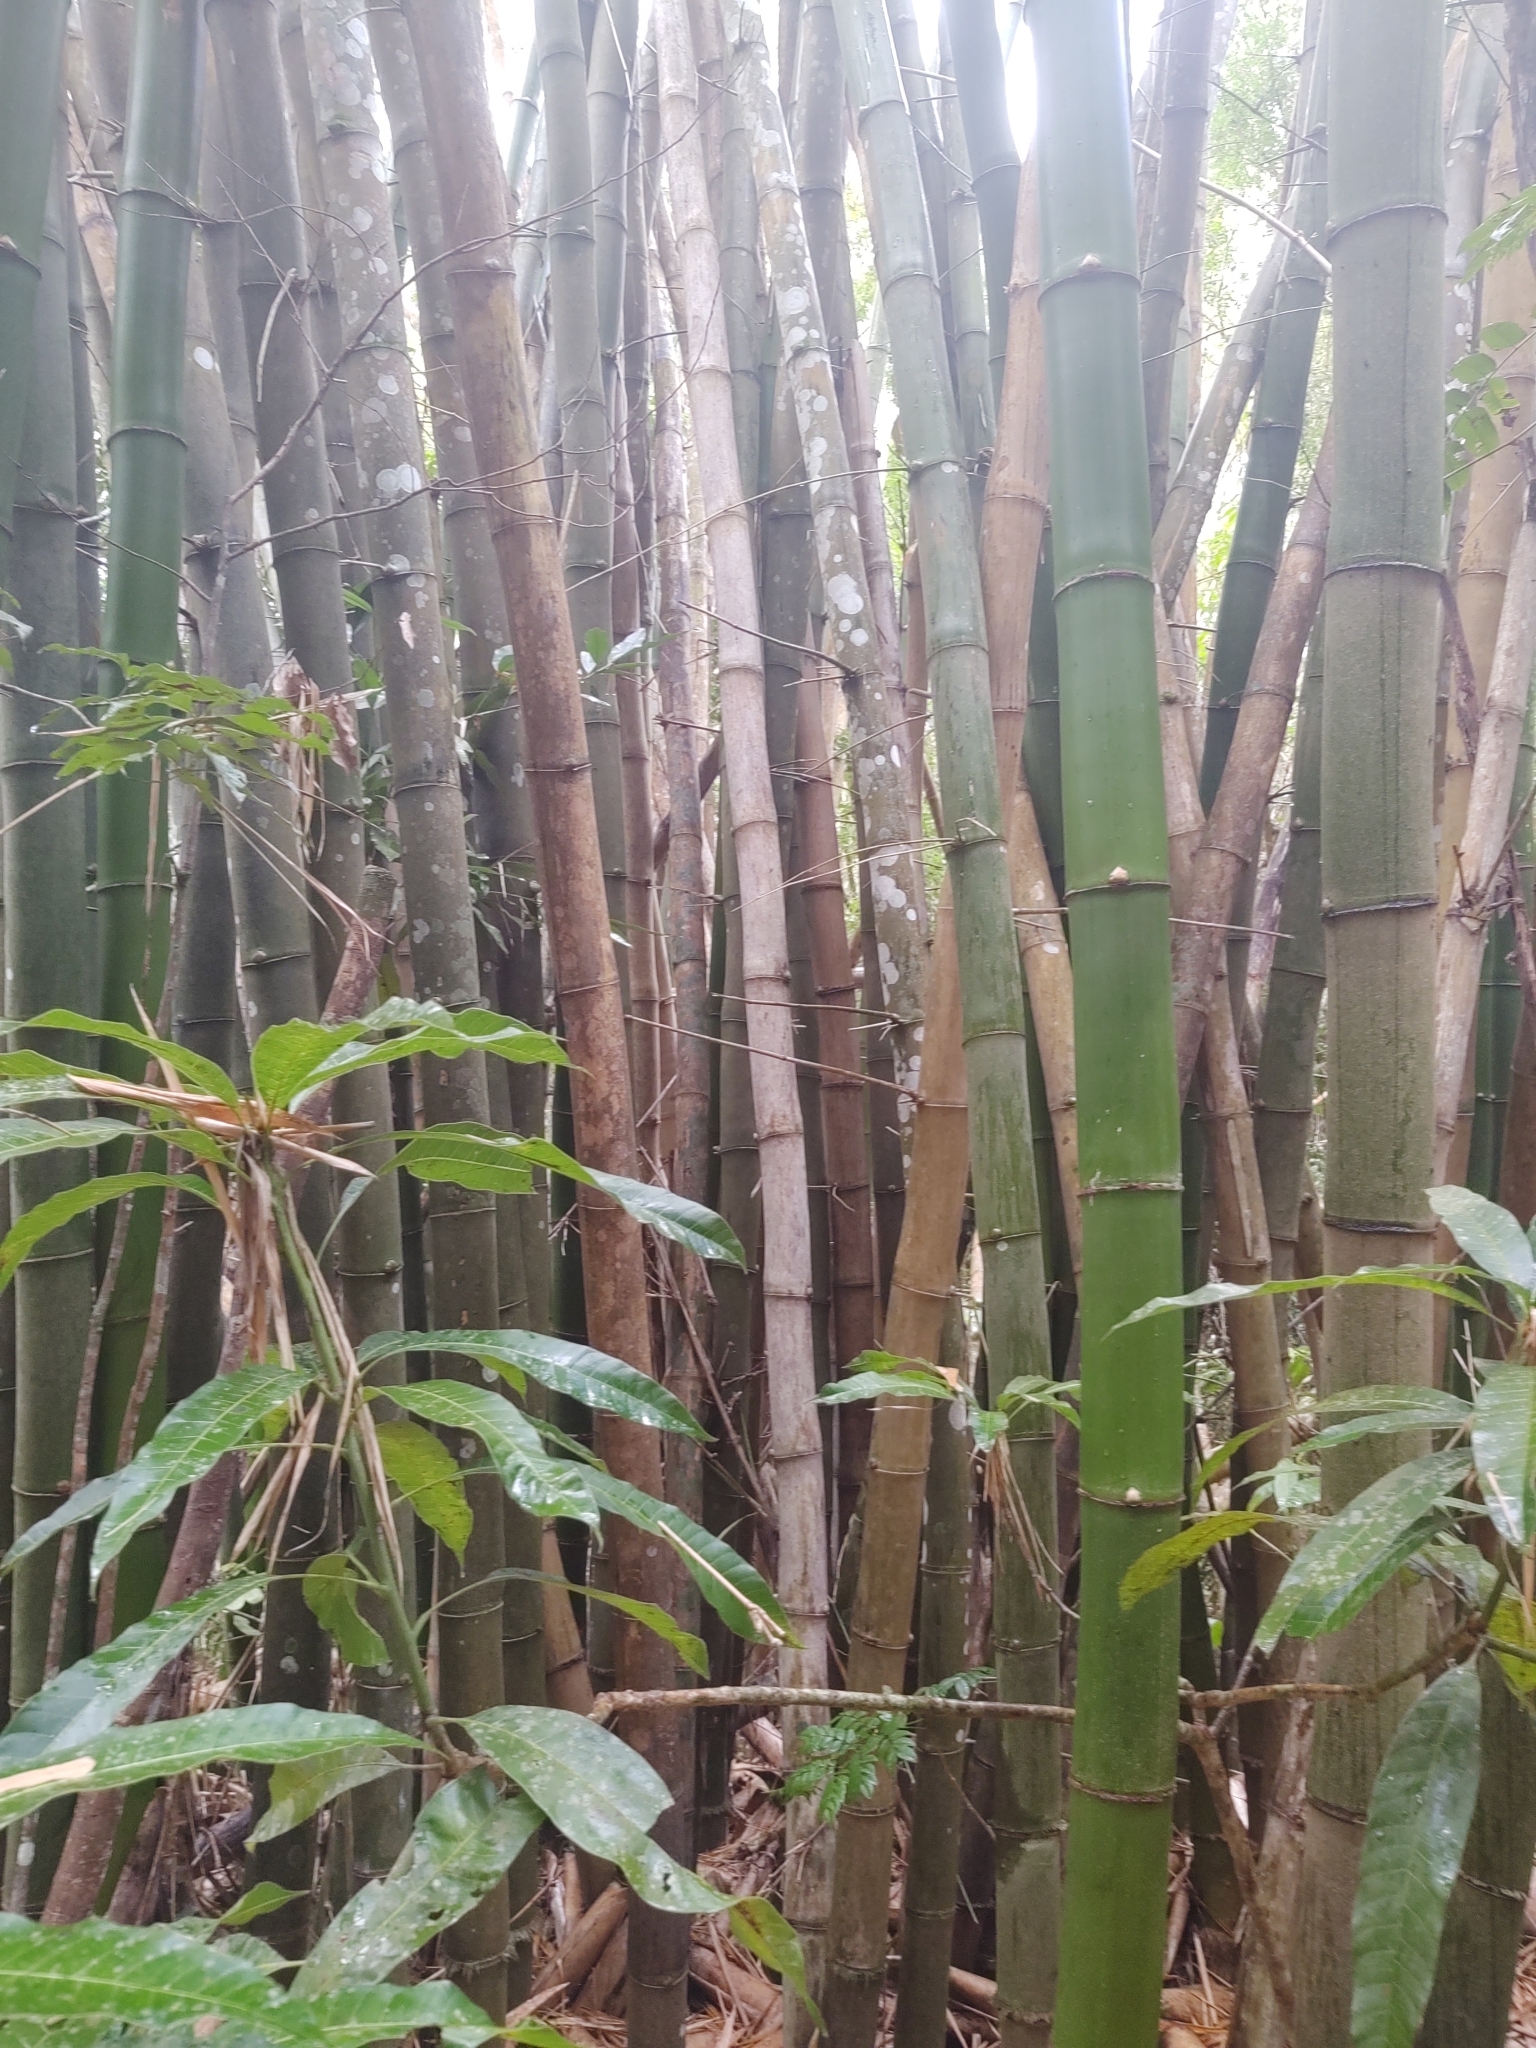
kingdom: Plantae
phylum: Tracheophyta
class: Liliopsida
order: Poales
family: Poaceae
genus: Bambusa
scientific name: Bambusa vulgaris
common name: Common bamboo
